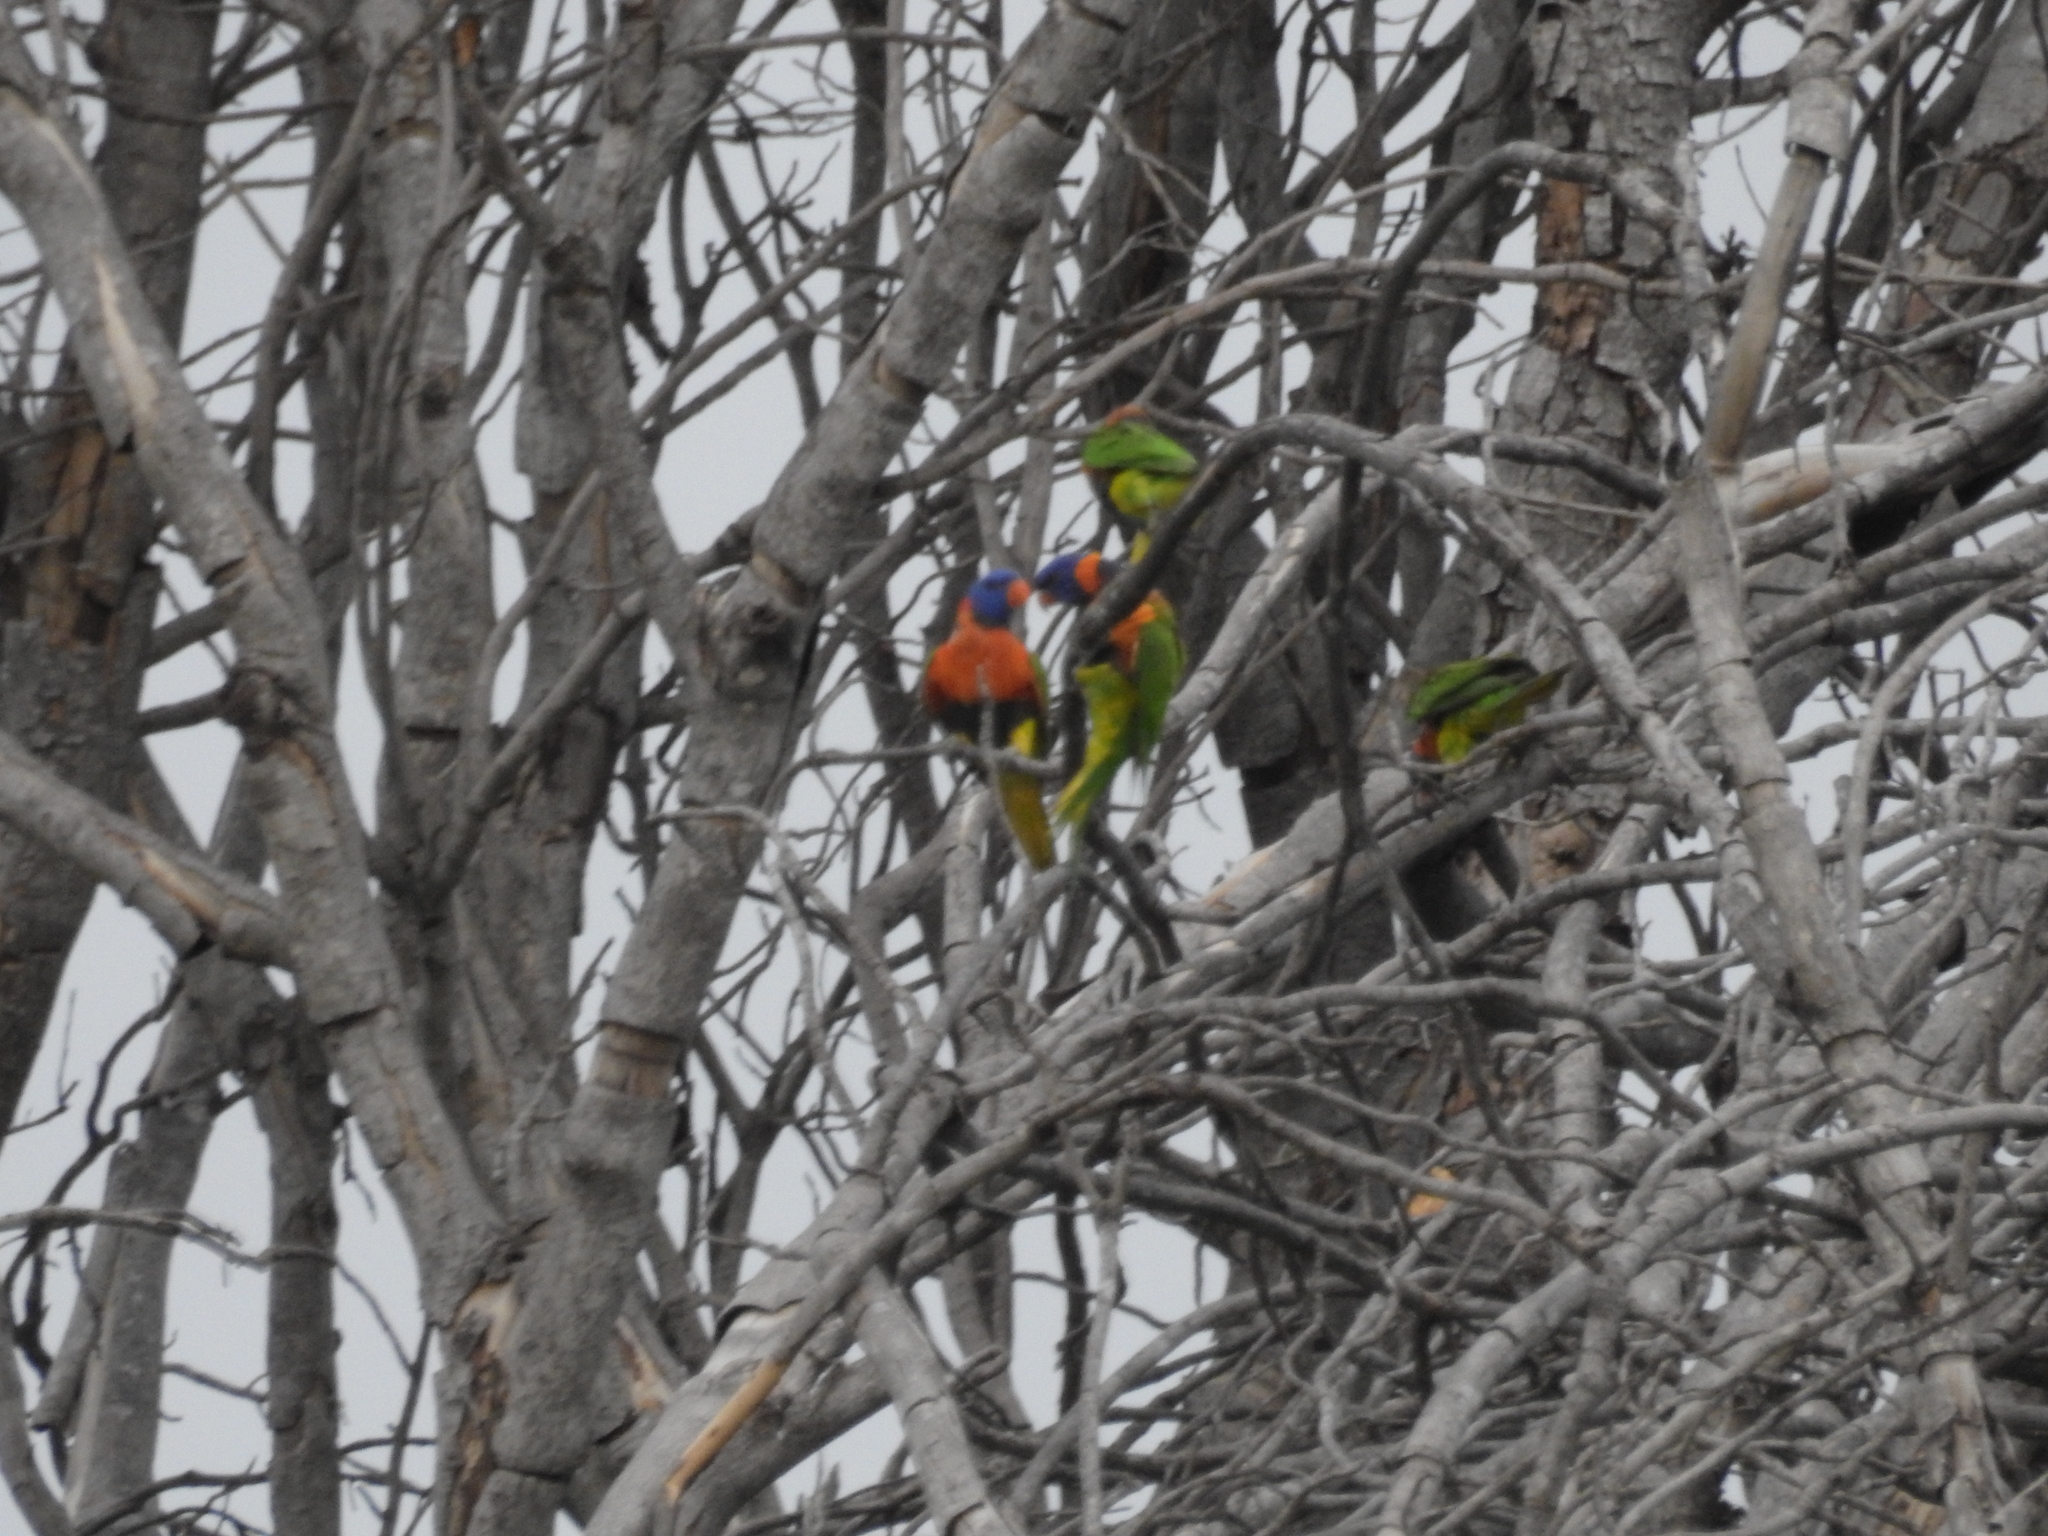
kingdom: Animalia
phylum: Chordata
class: Aves
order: Psittaciformes
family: Psittacidae
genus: Trichoglossus
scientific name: Trichoglossus rubritorquis
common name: Red-collared lorikeet
